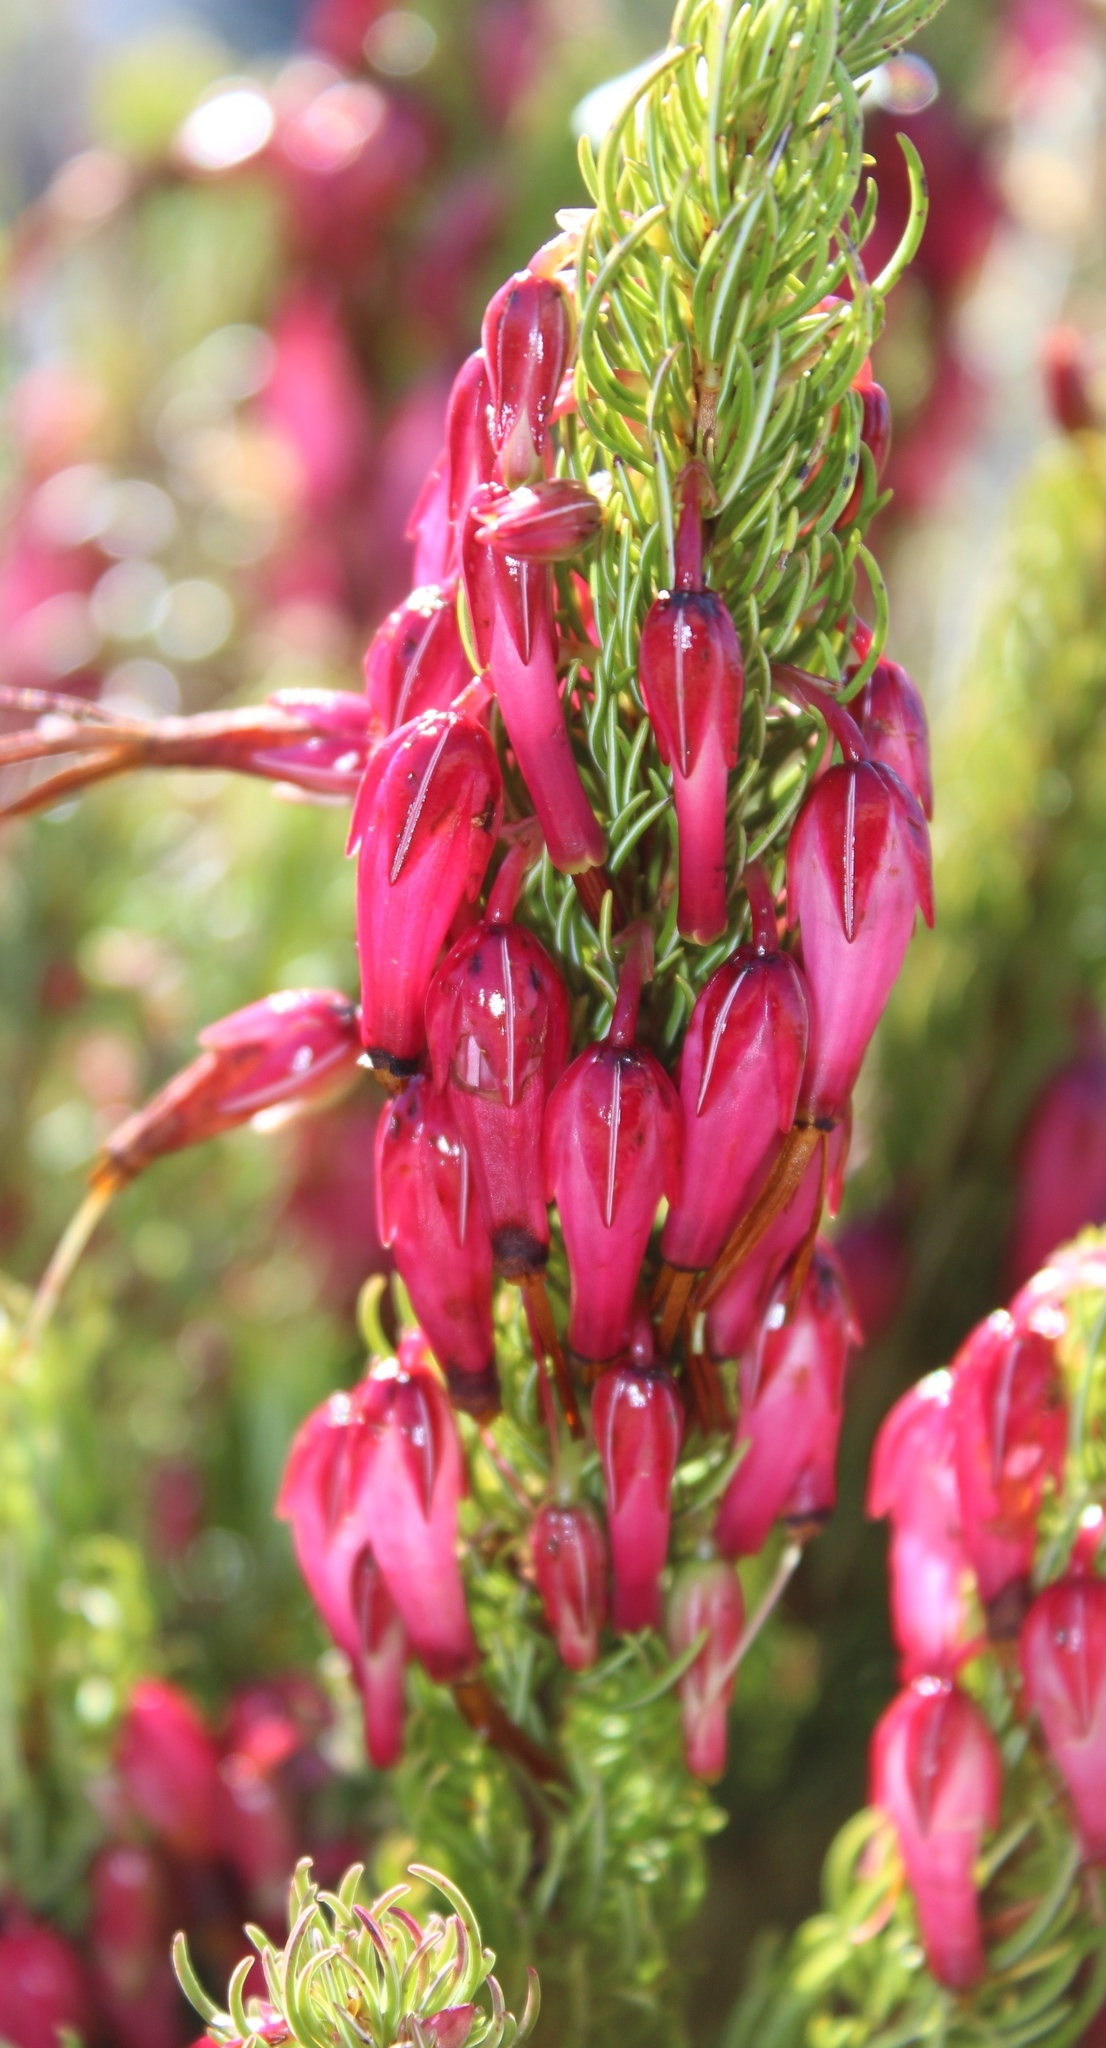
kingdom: Plantae
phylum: Tracheophyta
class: Magnoliopsida
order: Ericales
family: Ericaceae
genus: Erica
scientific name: Erica plukenetii
